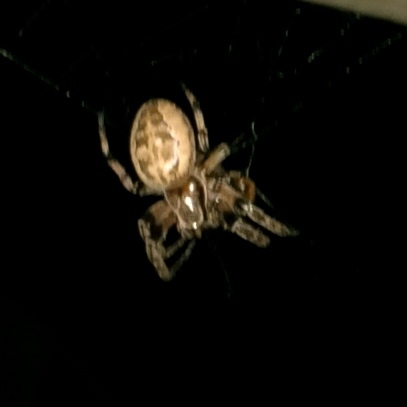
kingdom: Animalia
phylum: Arthropoda
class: Arachnida
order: Araneae
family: Araneidae
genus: Larinioides
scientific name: Larinioides cornutus
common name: Furrow orbweaver
